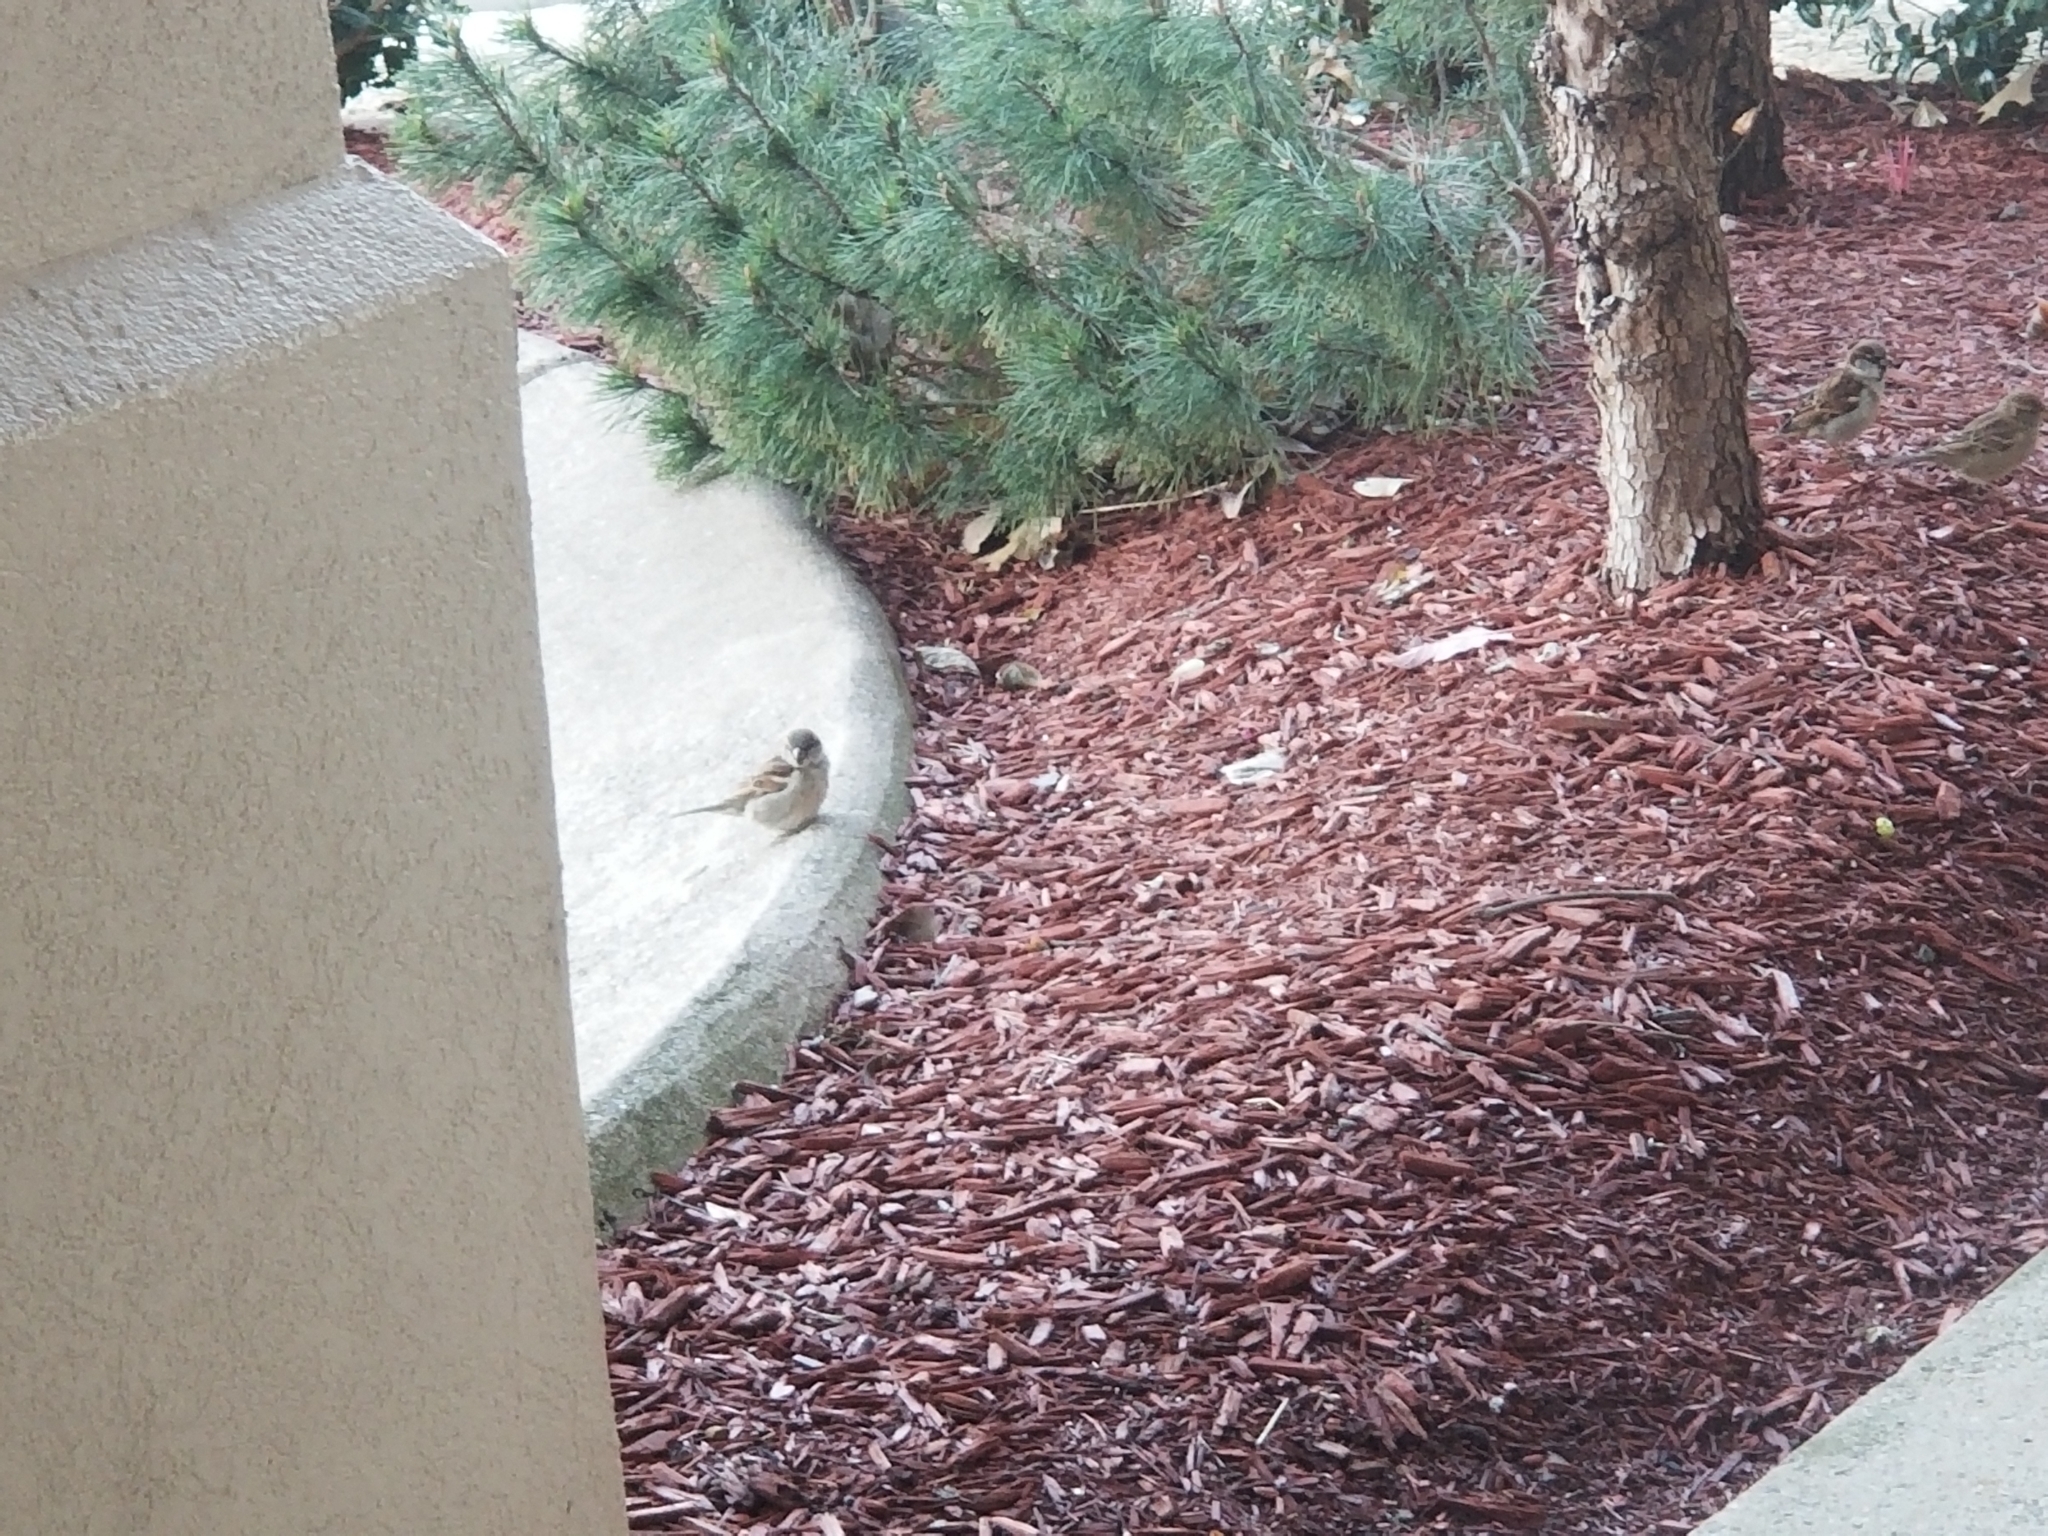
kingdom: Animalia
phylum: Chordata
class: Aves
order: Passeriformes
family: Passeridae
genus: Passer
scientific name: Passer domesticus
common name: House sparrow
